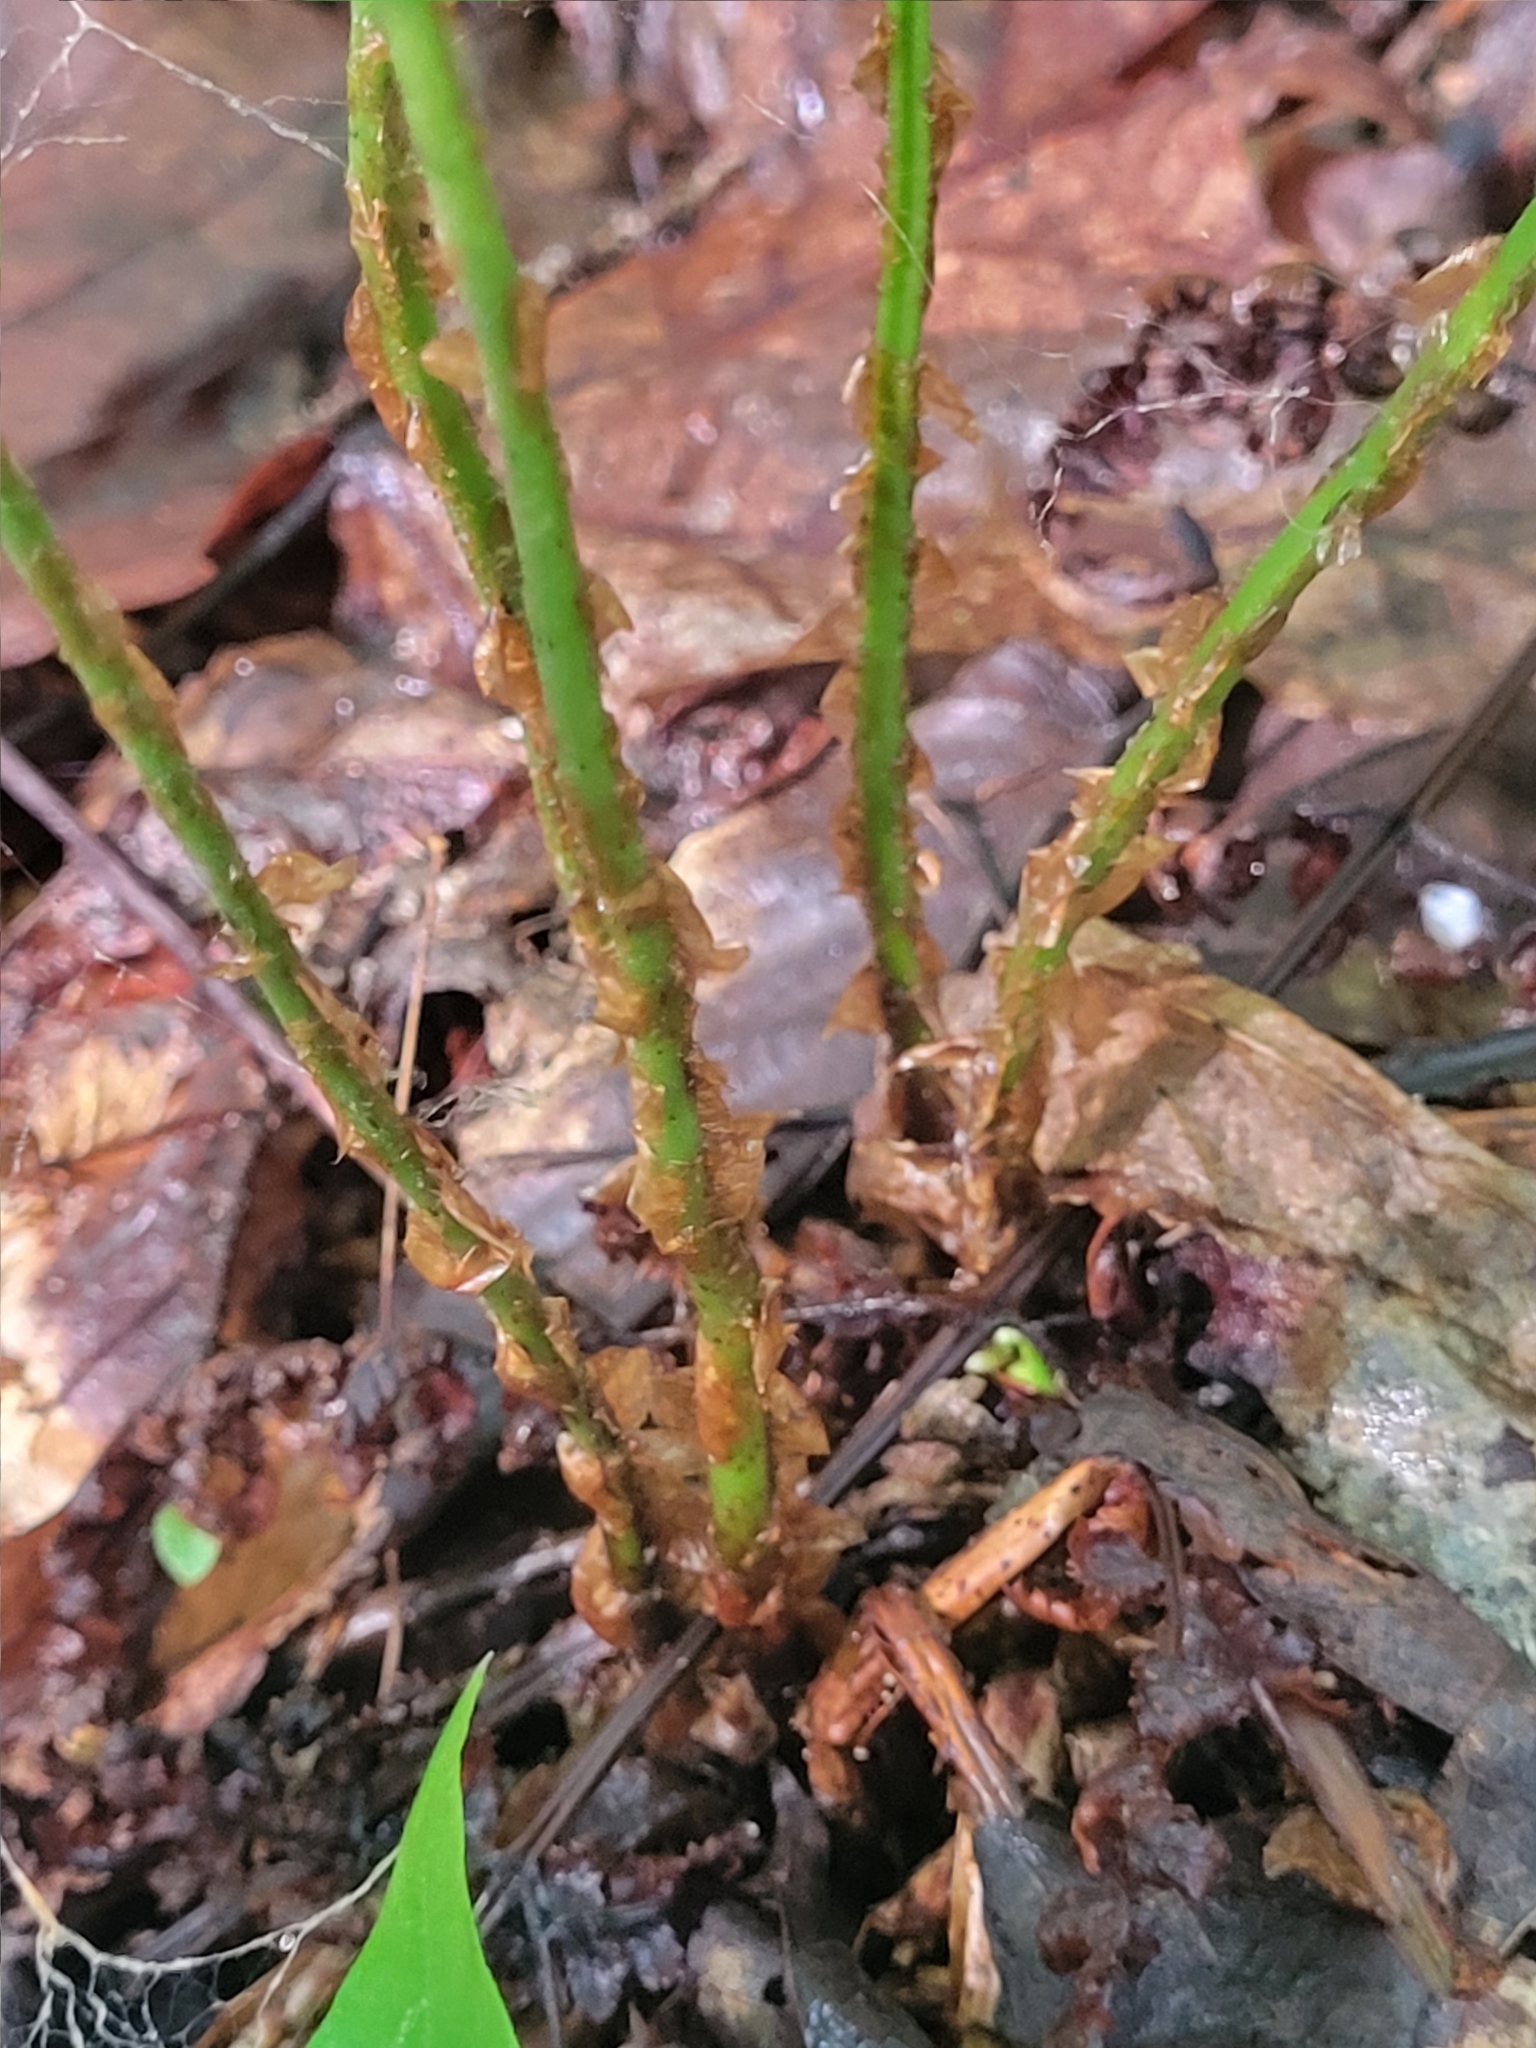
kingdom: Plantae
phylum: Tracheophyta
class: Polypodiopsida
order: Polypodiales
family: Dryopteridaceae
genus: Dryopteris
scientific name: Dryopteris intermedia
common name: Evergreen wood fern
